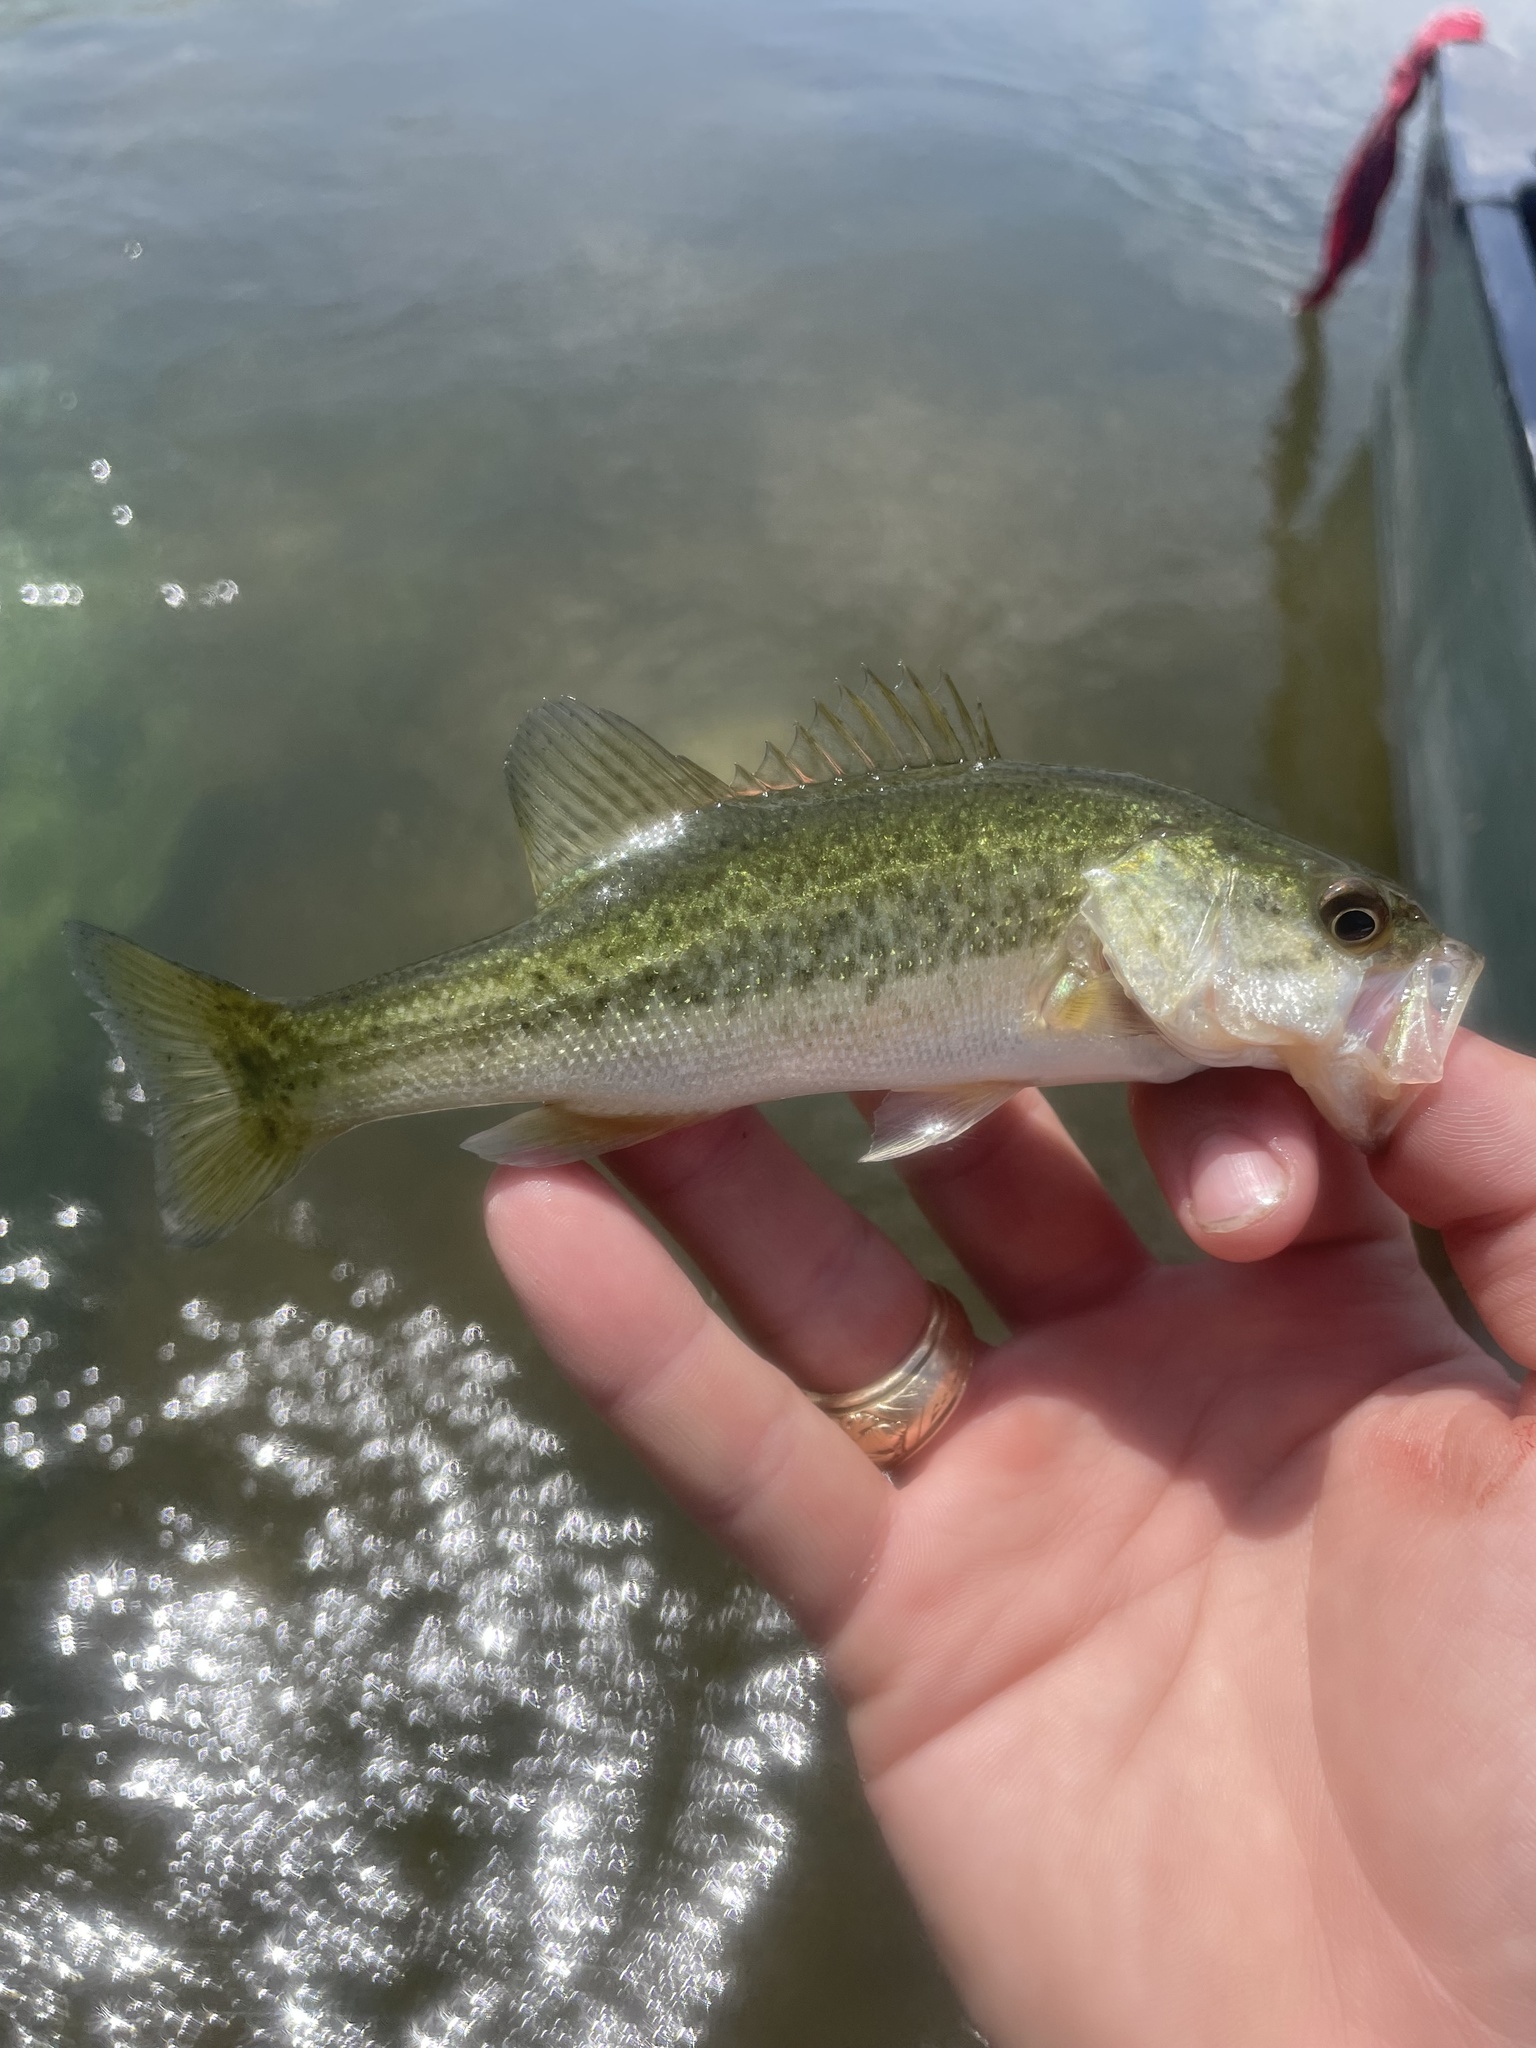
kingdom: Animalia
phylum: Chordata
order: Perciformes
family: Centrarchidae
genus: Micropterus
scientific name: Micropterus
